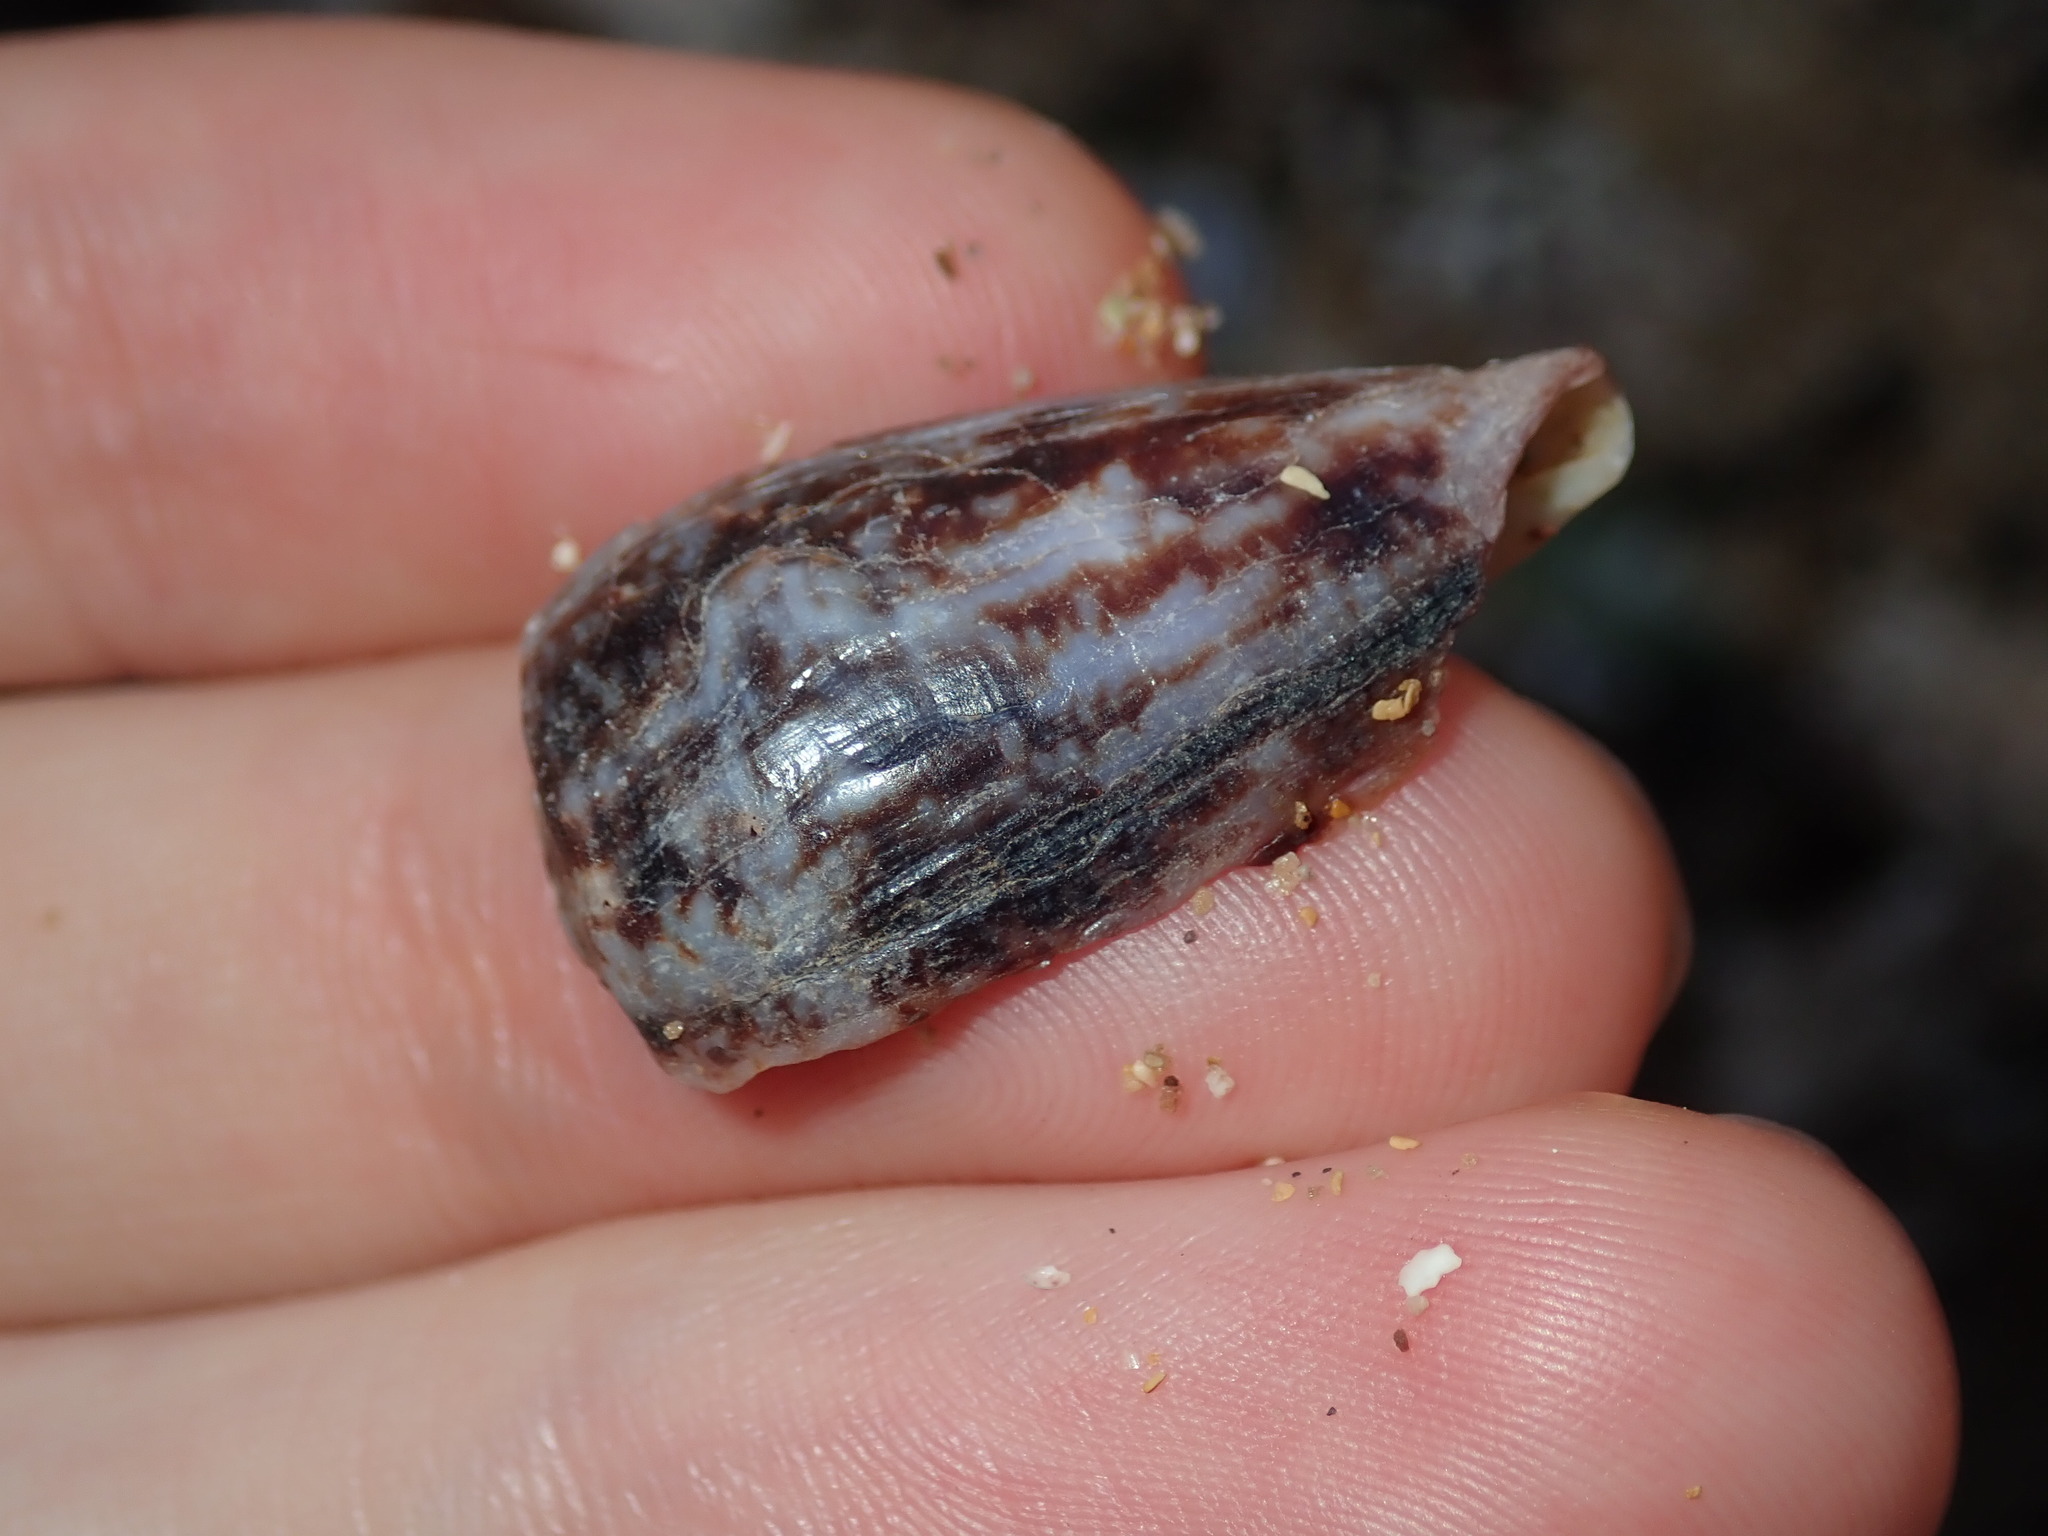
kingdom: Animalia
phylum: Mollusca
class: Gastropoda
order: Neogastropoda
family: Conidae
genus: Conus
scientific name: Conus anemone
